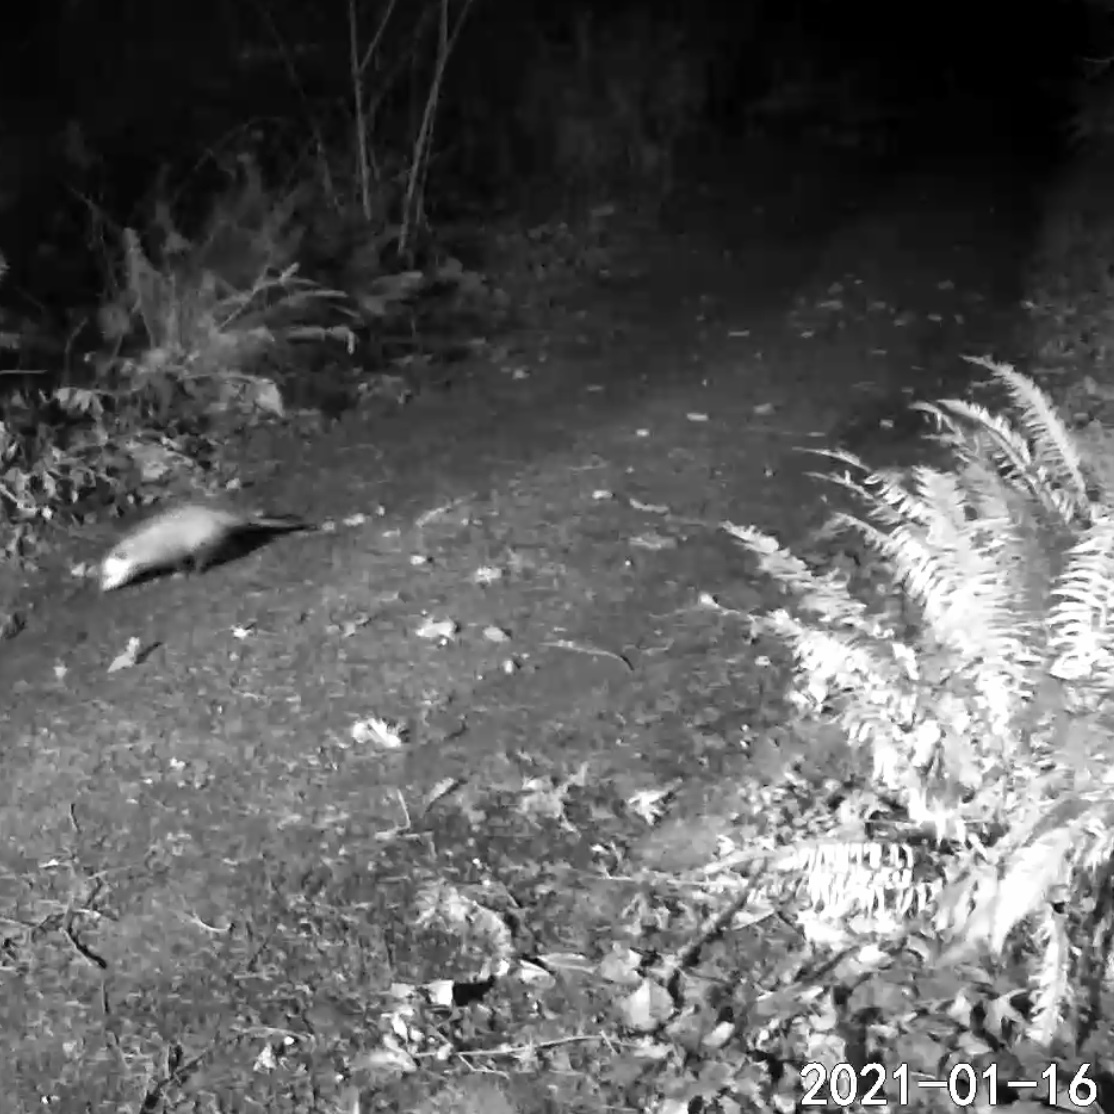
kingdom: Animalia
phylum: Chordata
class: Mammalia
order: Didelphimorphia
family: Didelphidae
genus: Didelphis
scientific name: Didelphis virginiana
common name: Virginia opossum
